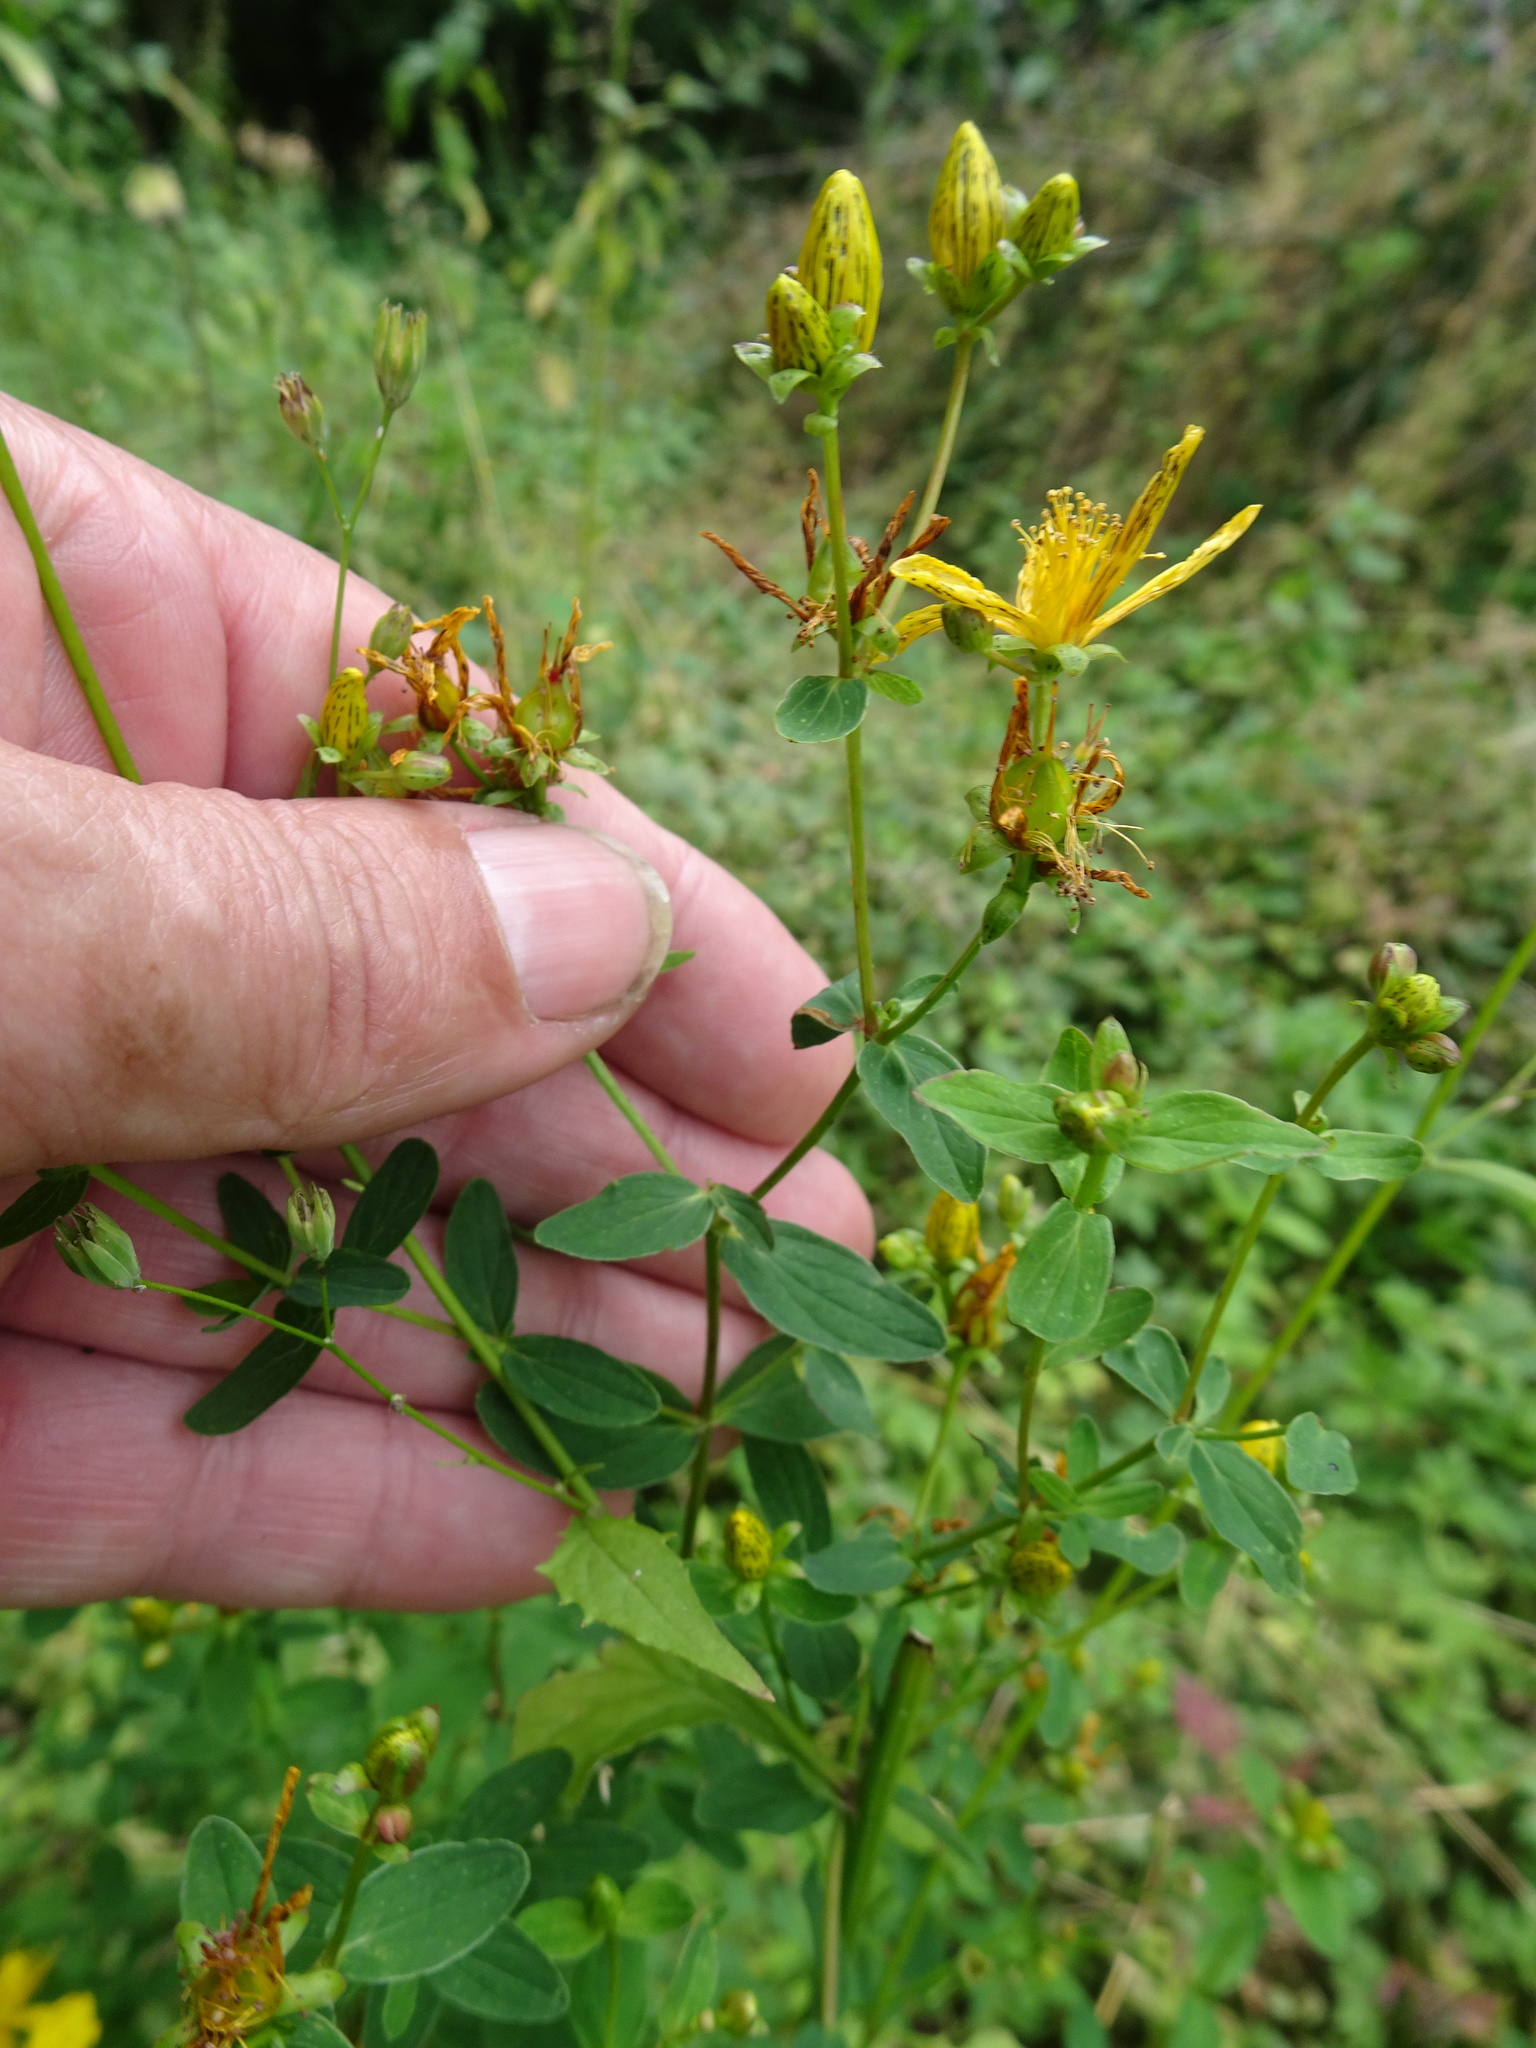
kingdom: Plantae
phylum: Tracheophyta
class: Magnoliopsida
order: Malpighiales
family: Hypericaceae
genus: Hypericum
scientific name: Hypericum dubium
